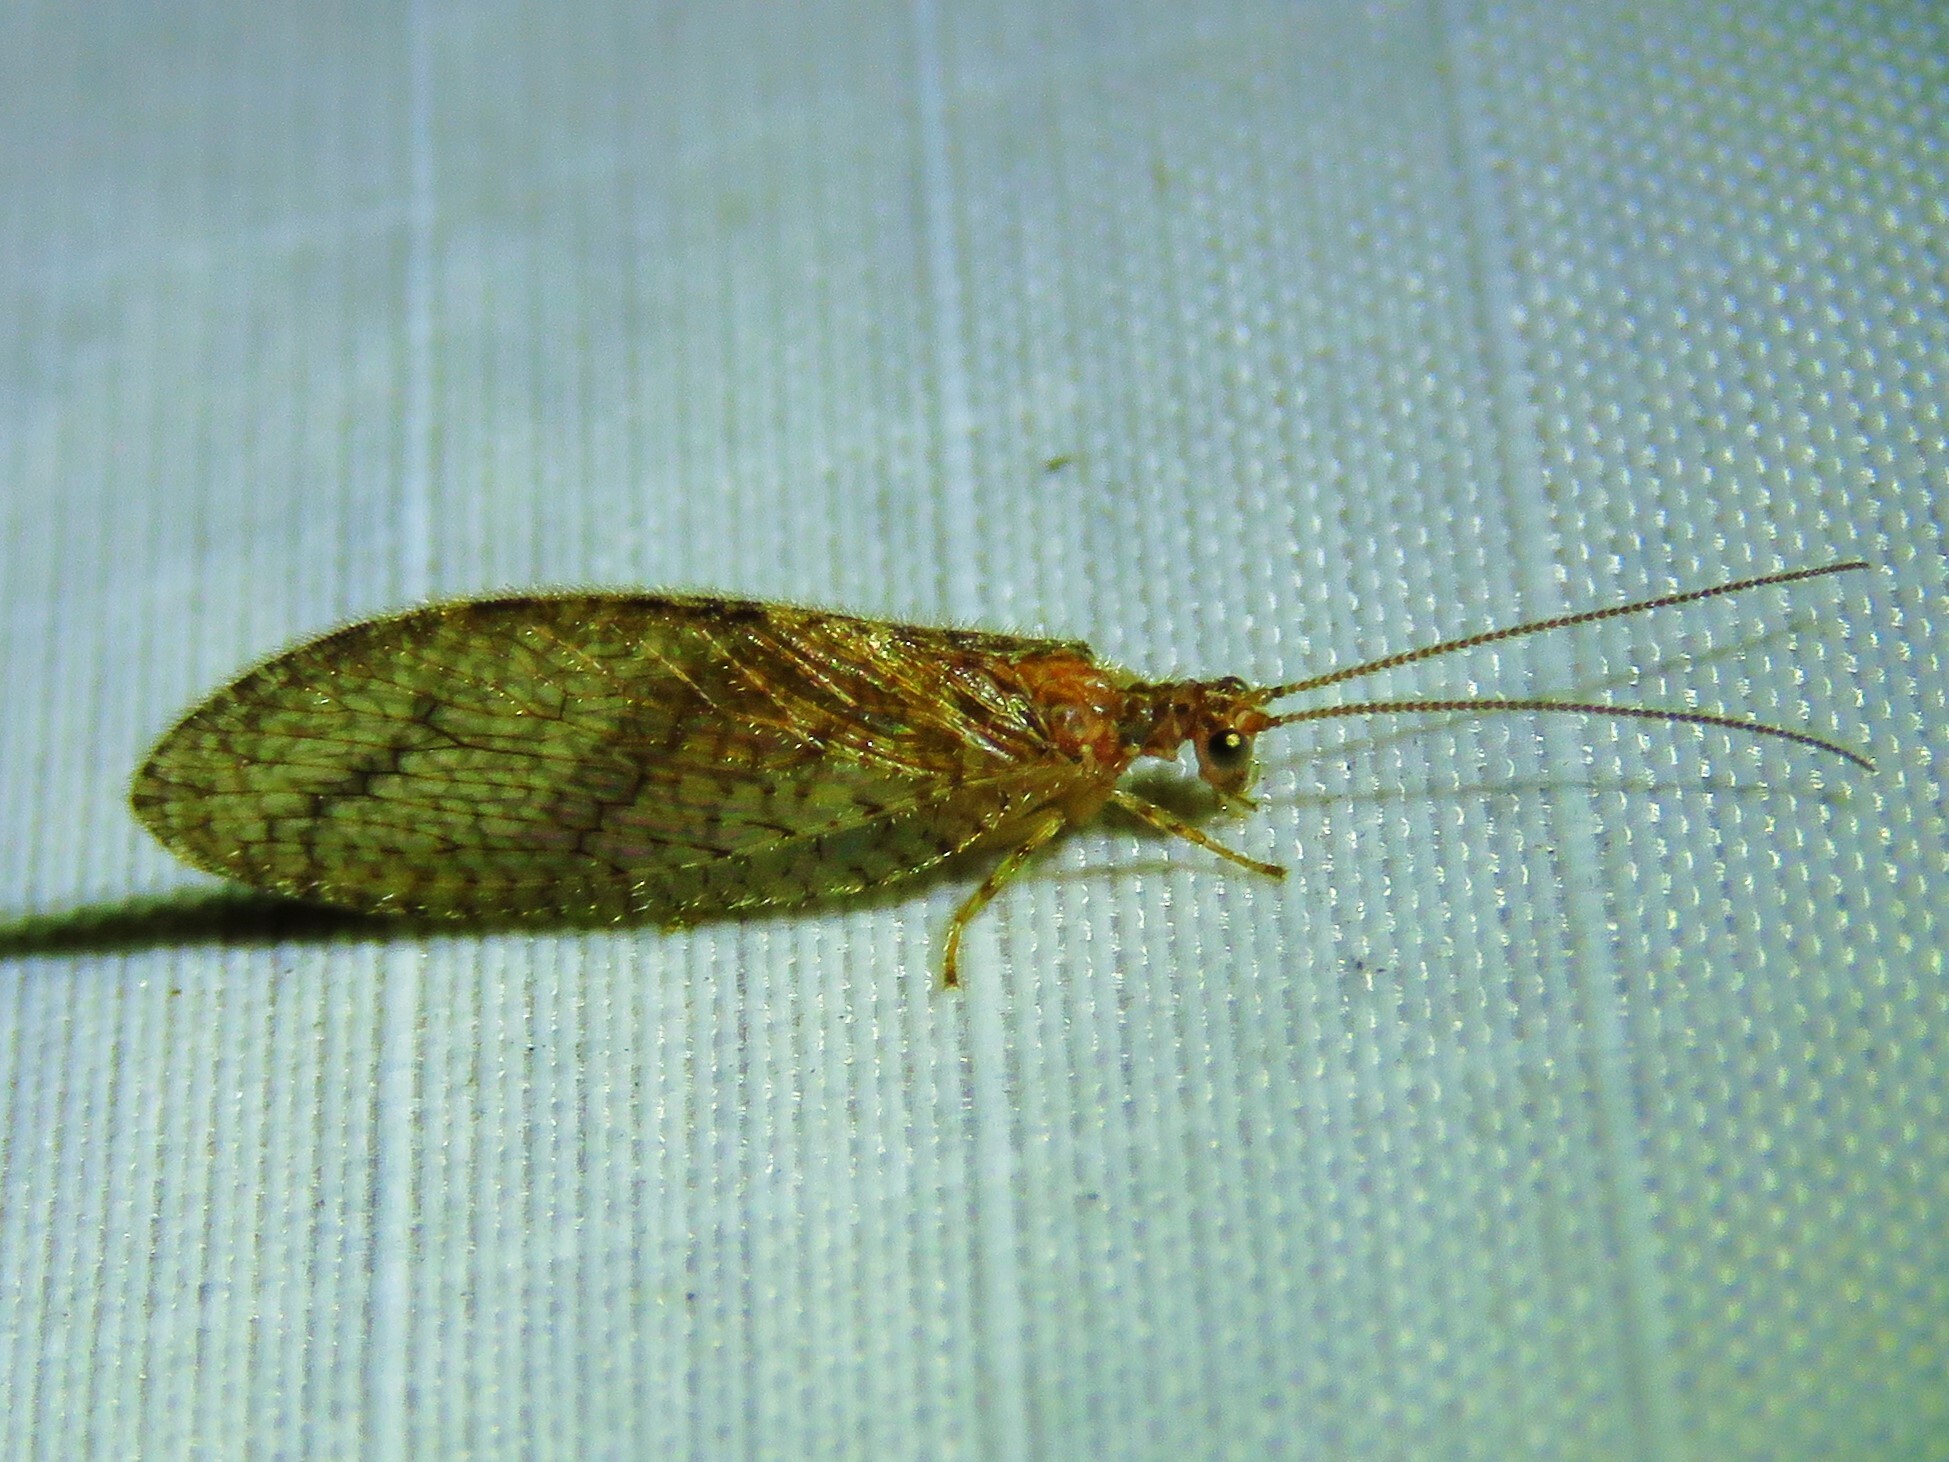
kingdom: Animalia
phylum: Arthropoda
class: Insecta
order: Neuroptera
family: Hemerobiidae
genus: Micromus
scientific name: Micromus posticus
